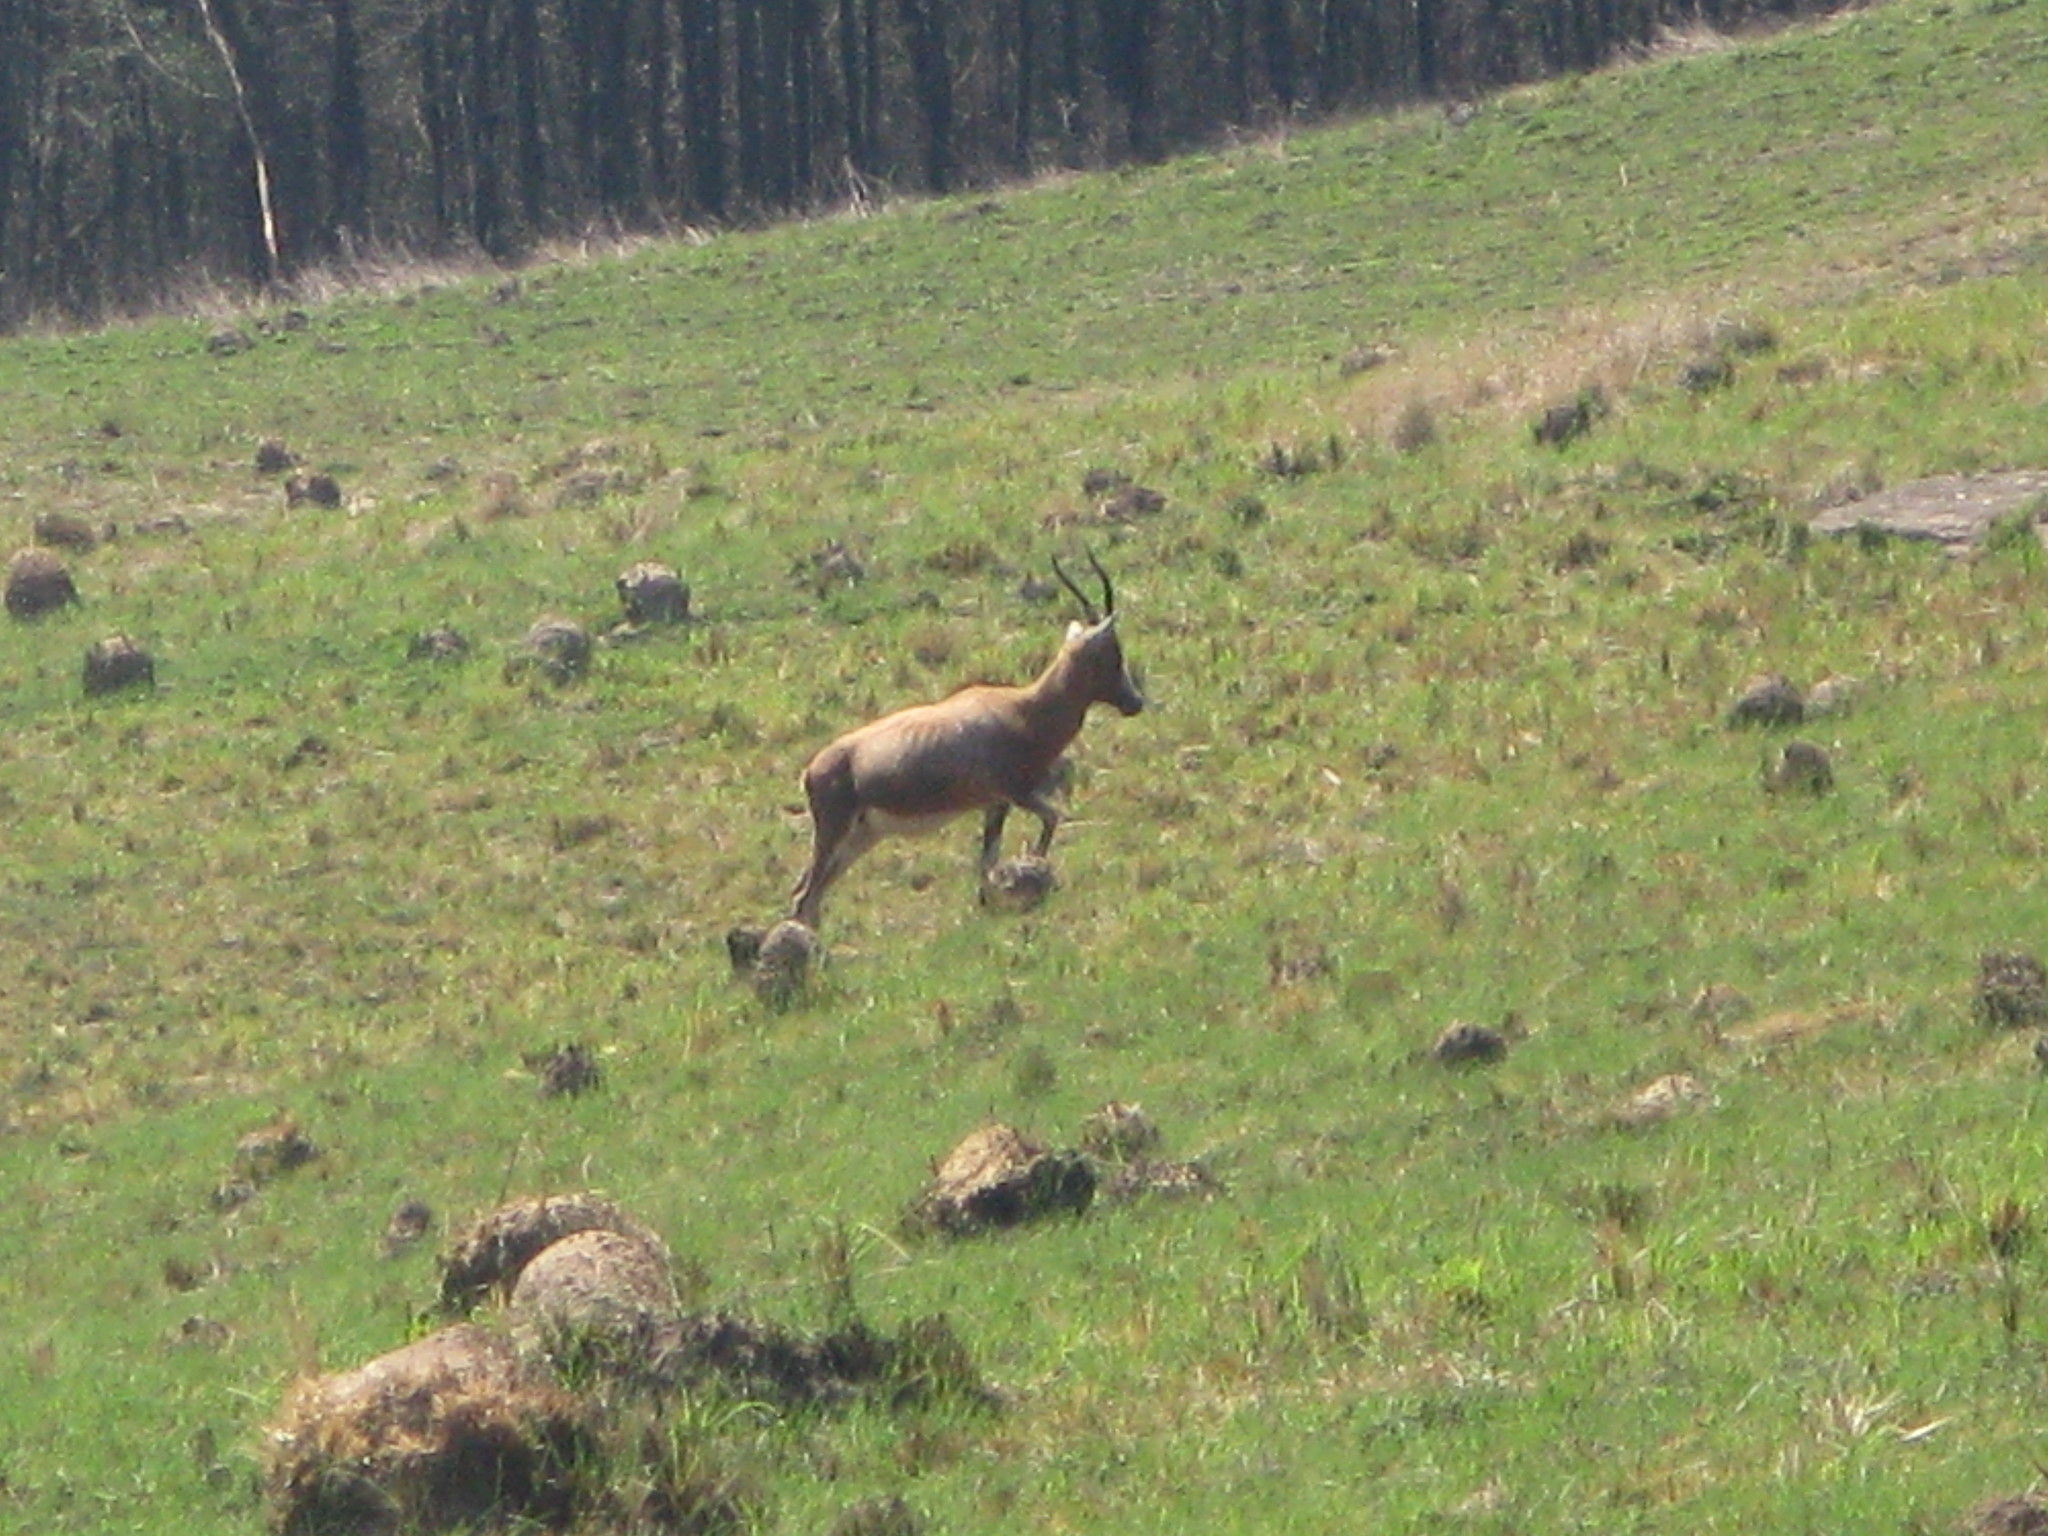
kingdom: Animalia
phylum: Chordata
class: Mammalia
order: Artiodactyla
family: Bovidae
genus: Damaliscus
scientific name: Damaliscus pygargus
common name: Bontebok
